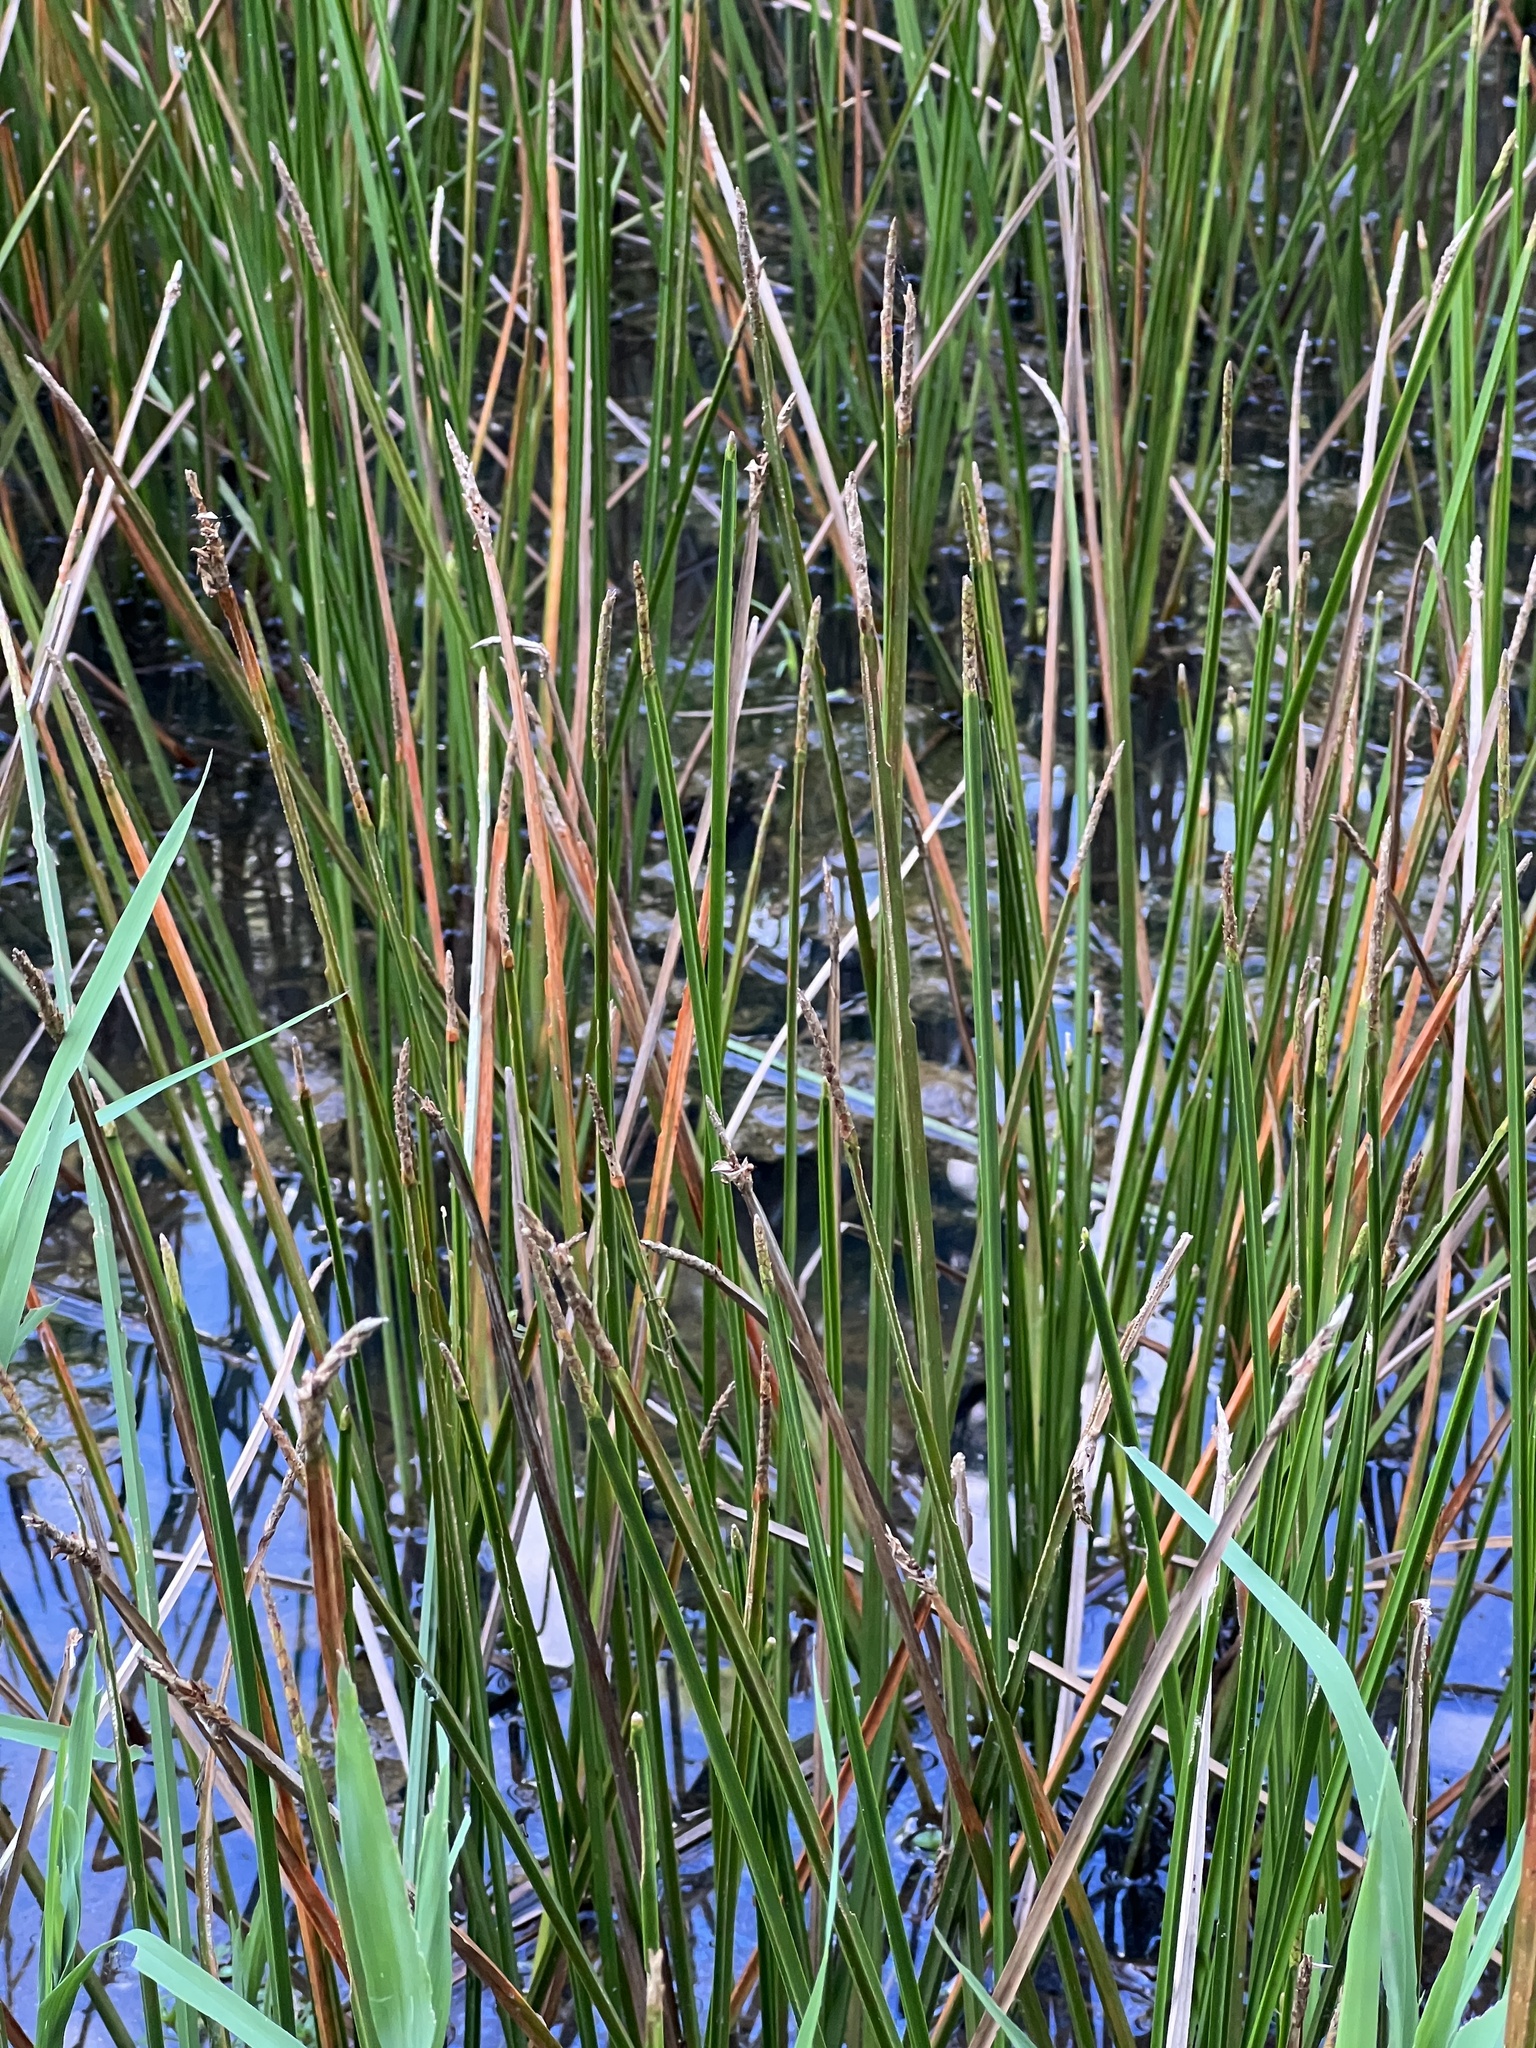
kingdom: Plantae
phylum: Tracheophyta
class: Liliopsida
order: Poales
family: Cyperaceae
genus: Eleocharis
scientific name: Eleocharis quadrangulata
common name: Square-stem spike-rush
